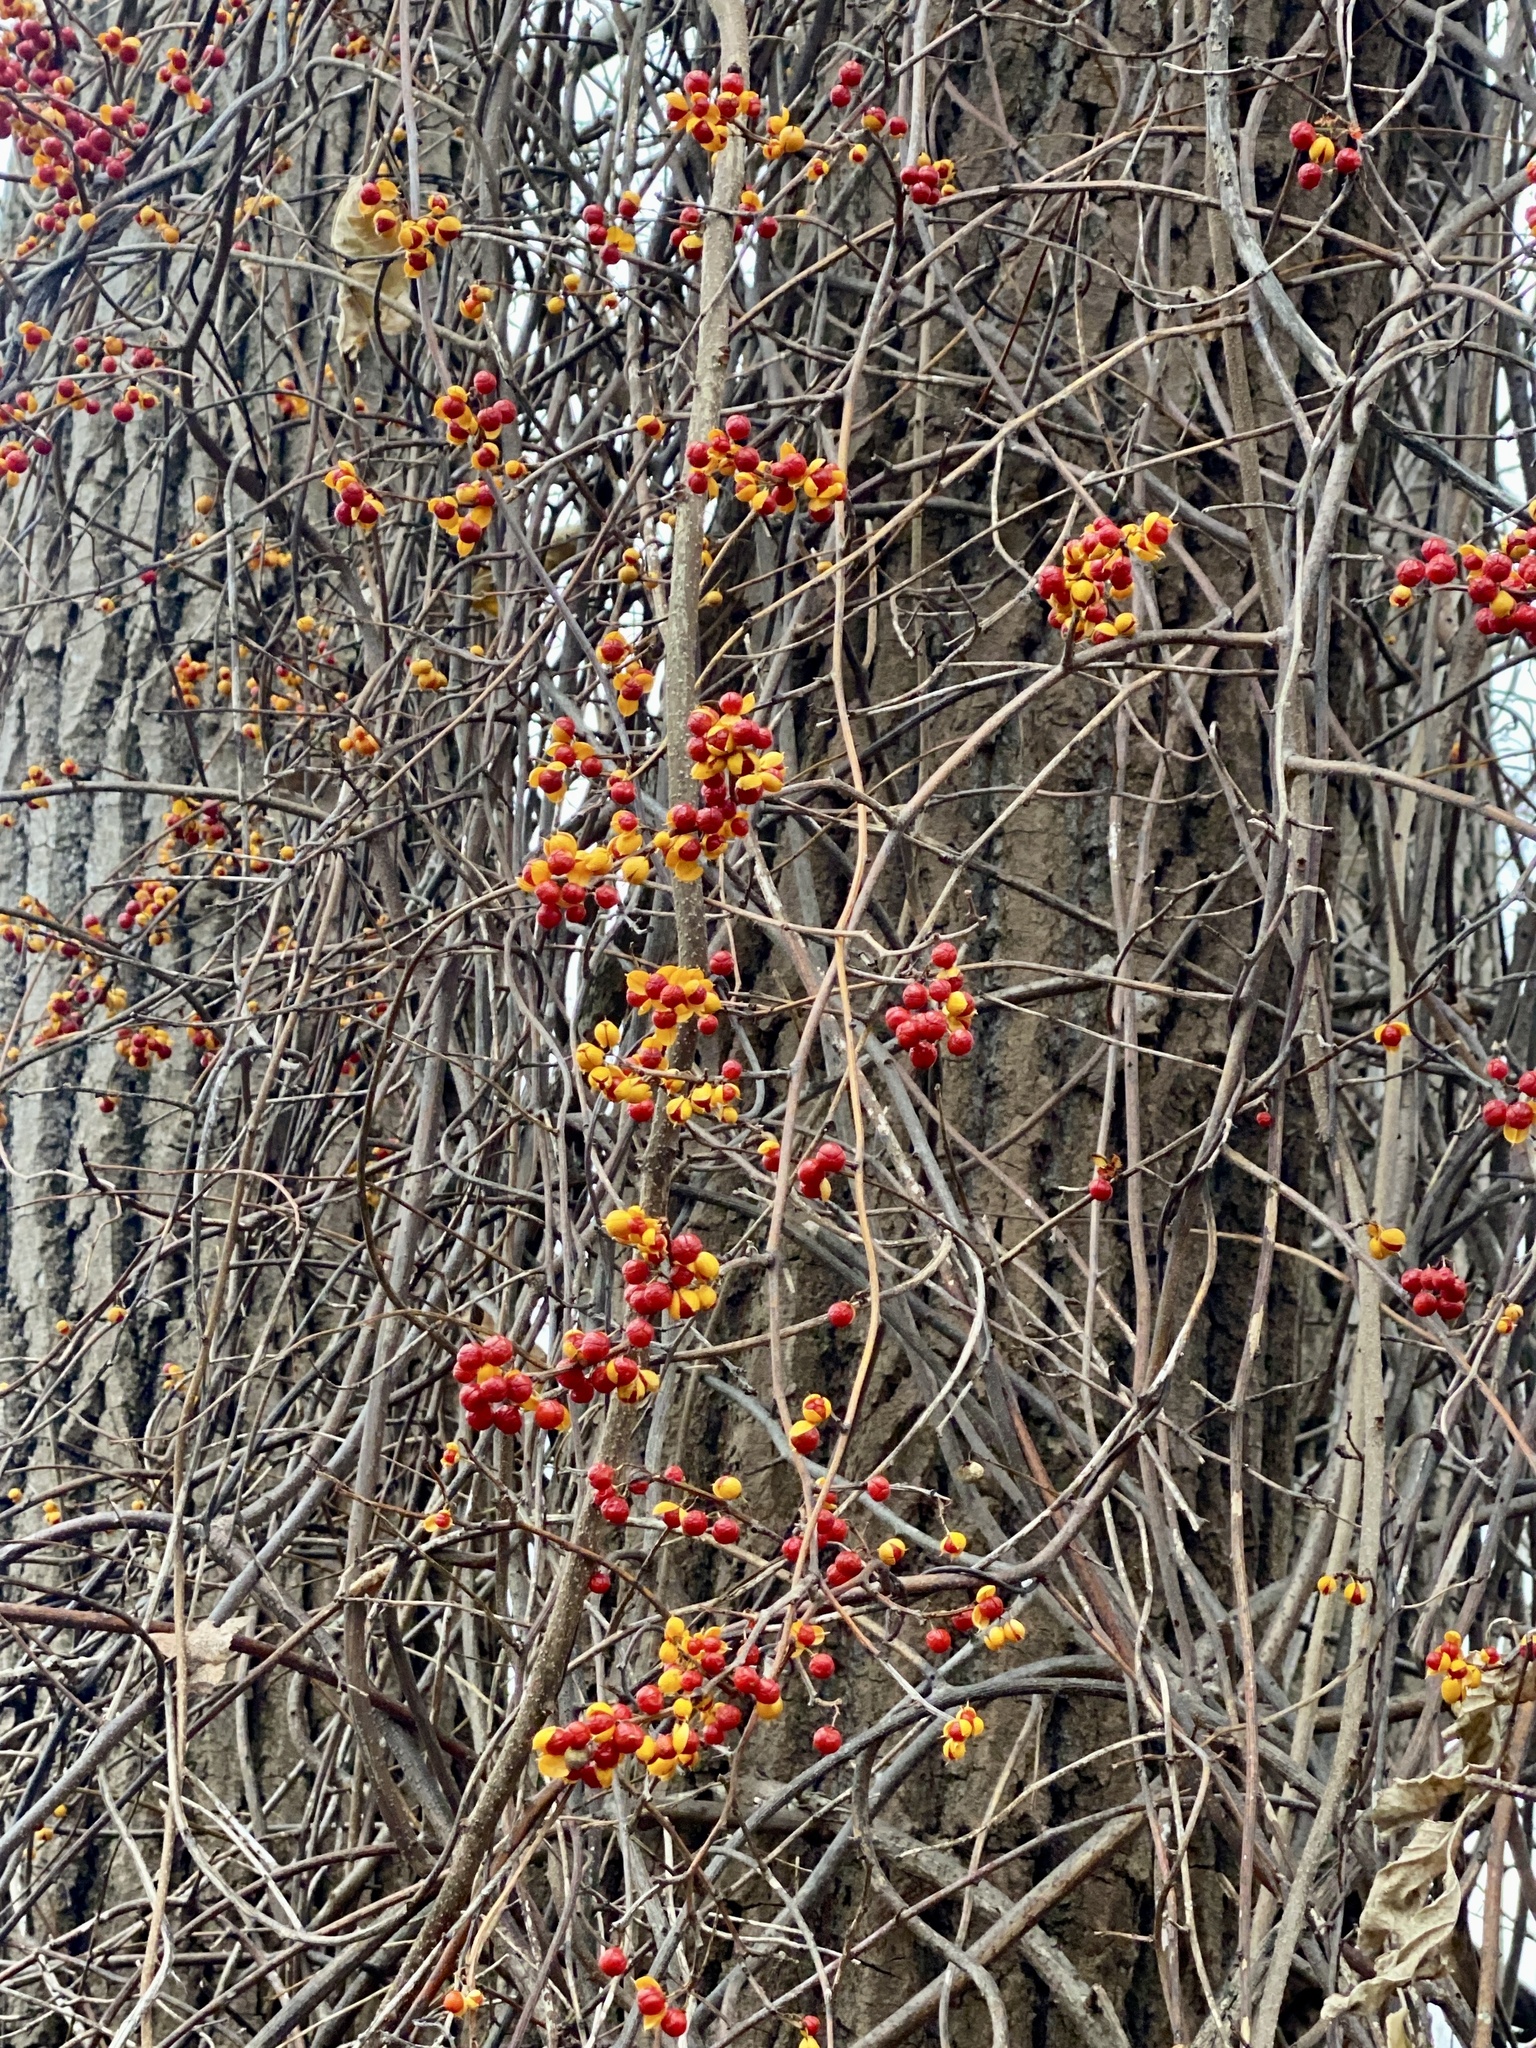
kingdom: Plantae
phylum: Tracheophyta
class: Magnoliopsida
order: Celastrales
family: Celastraceae
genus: Celastrus
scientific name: Celastrus orbiculatus
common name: Oriental bittersweet
